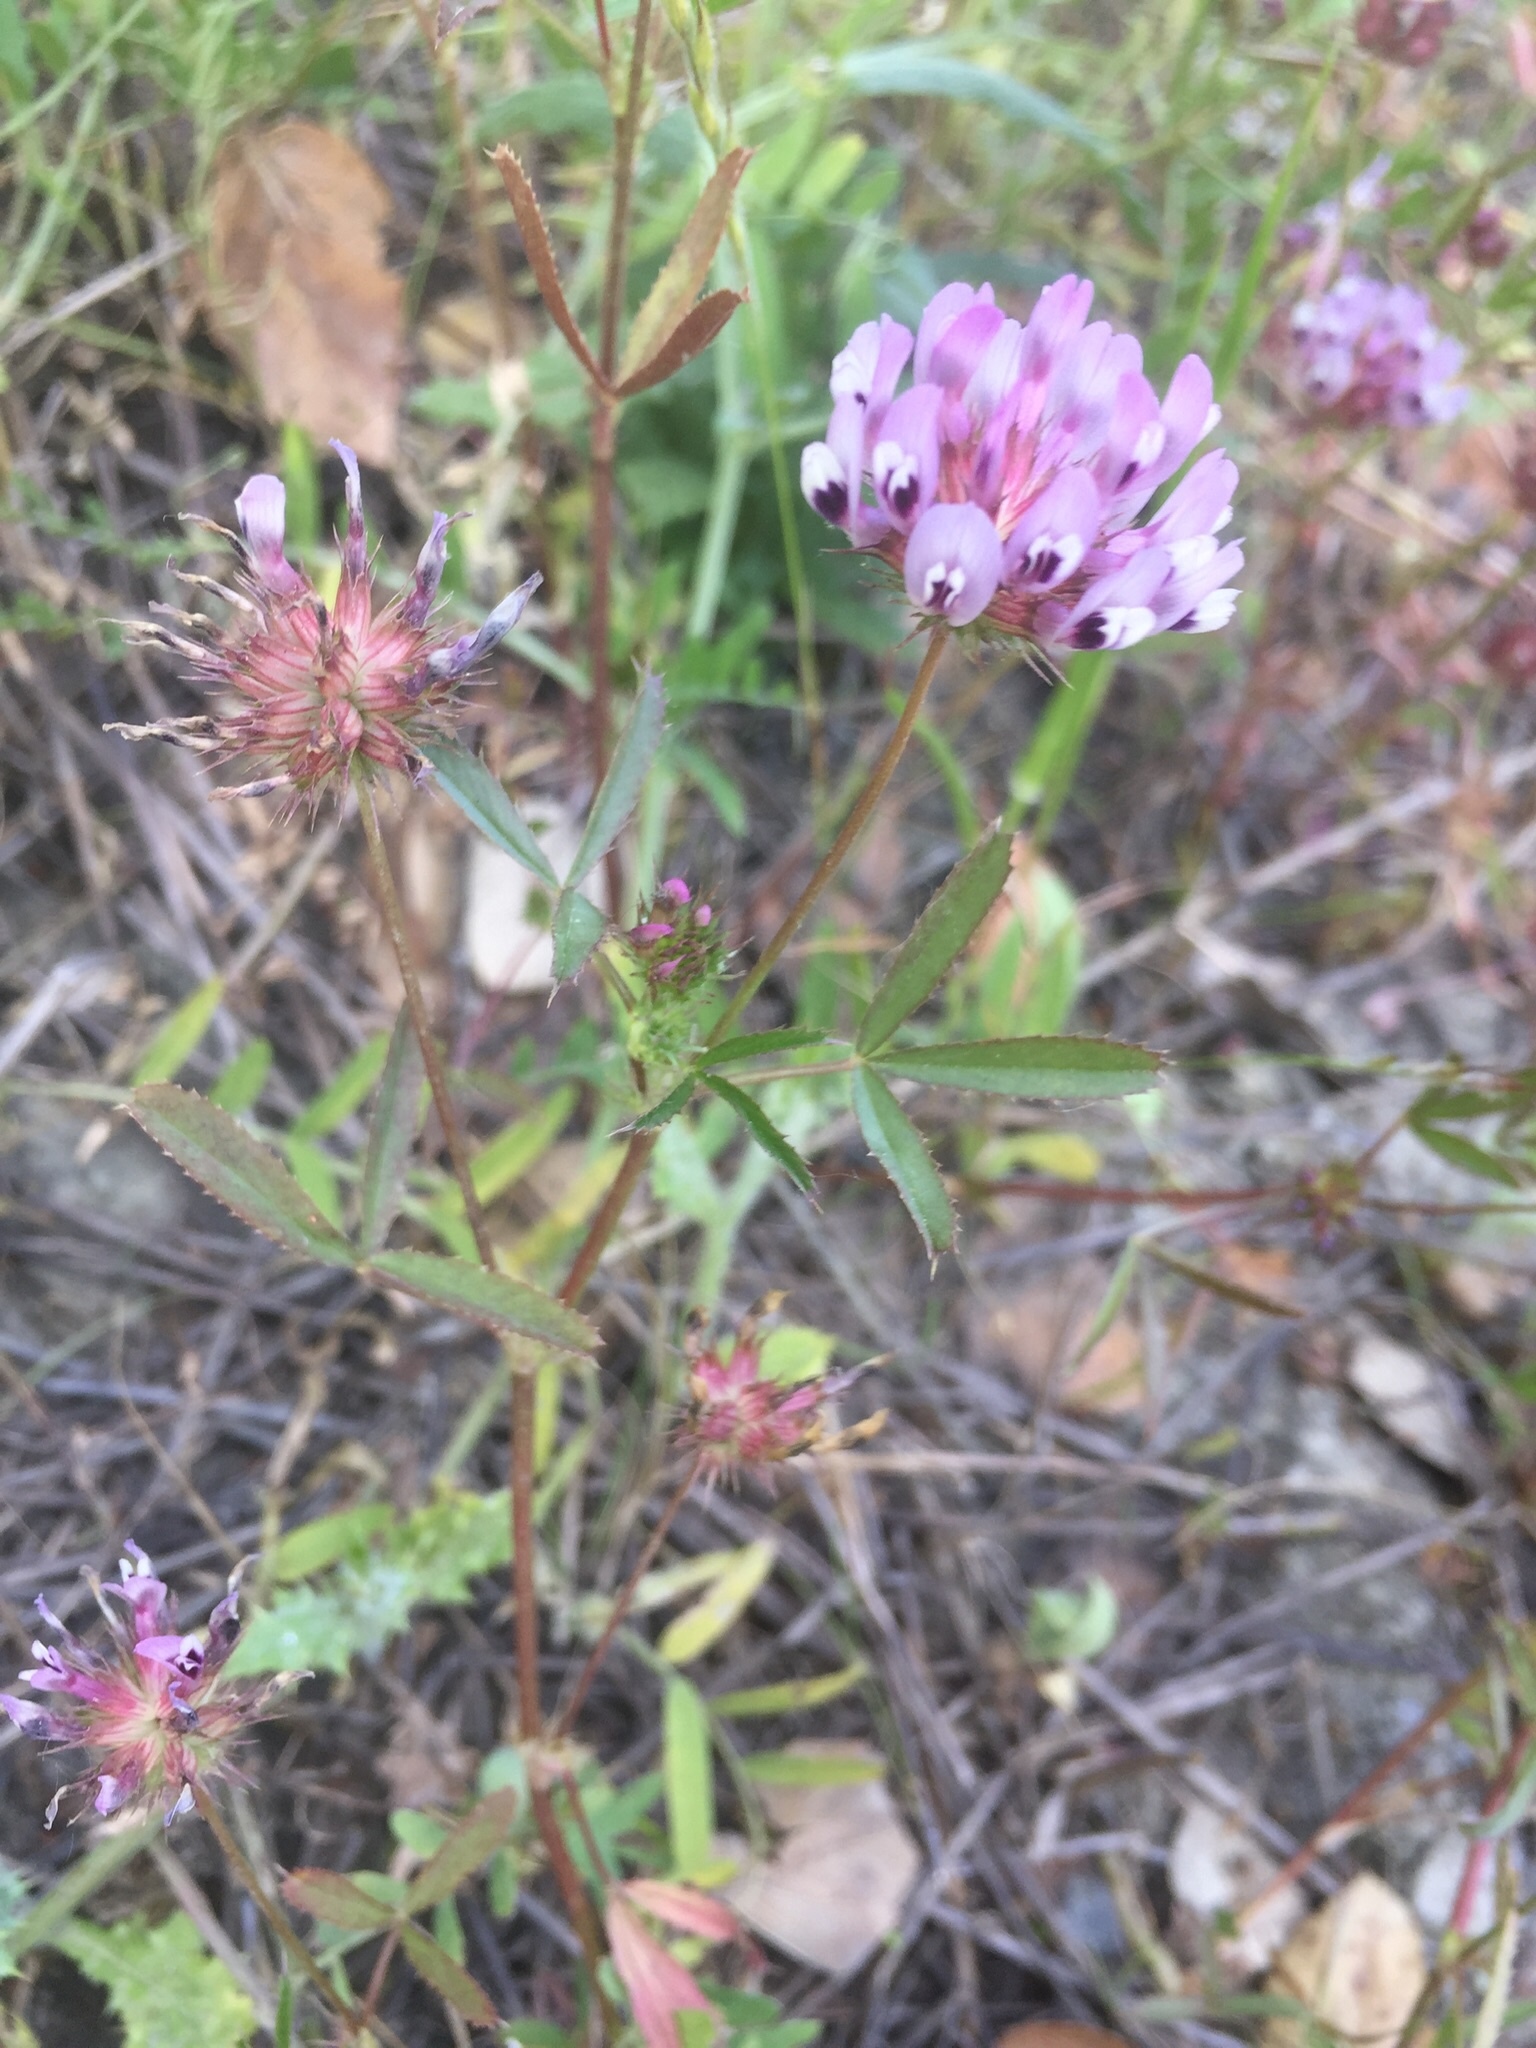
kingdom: Plantae
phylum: Tracheophyta
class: Magnoliopsida
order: Fabales
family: Fabaceae
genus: Trifolium
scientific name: Trifolium willdenovii
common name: Tomcat clover
